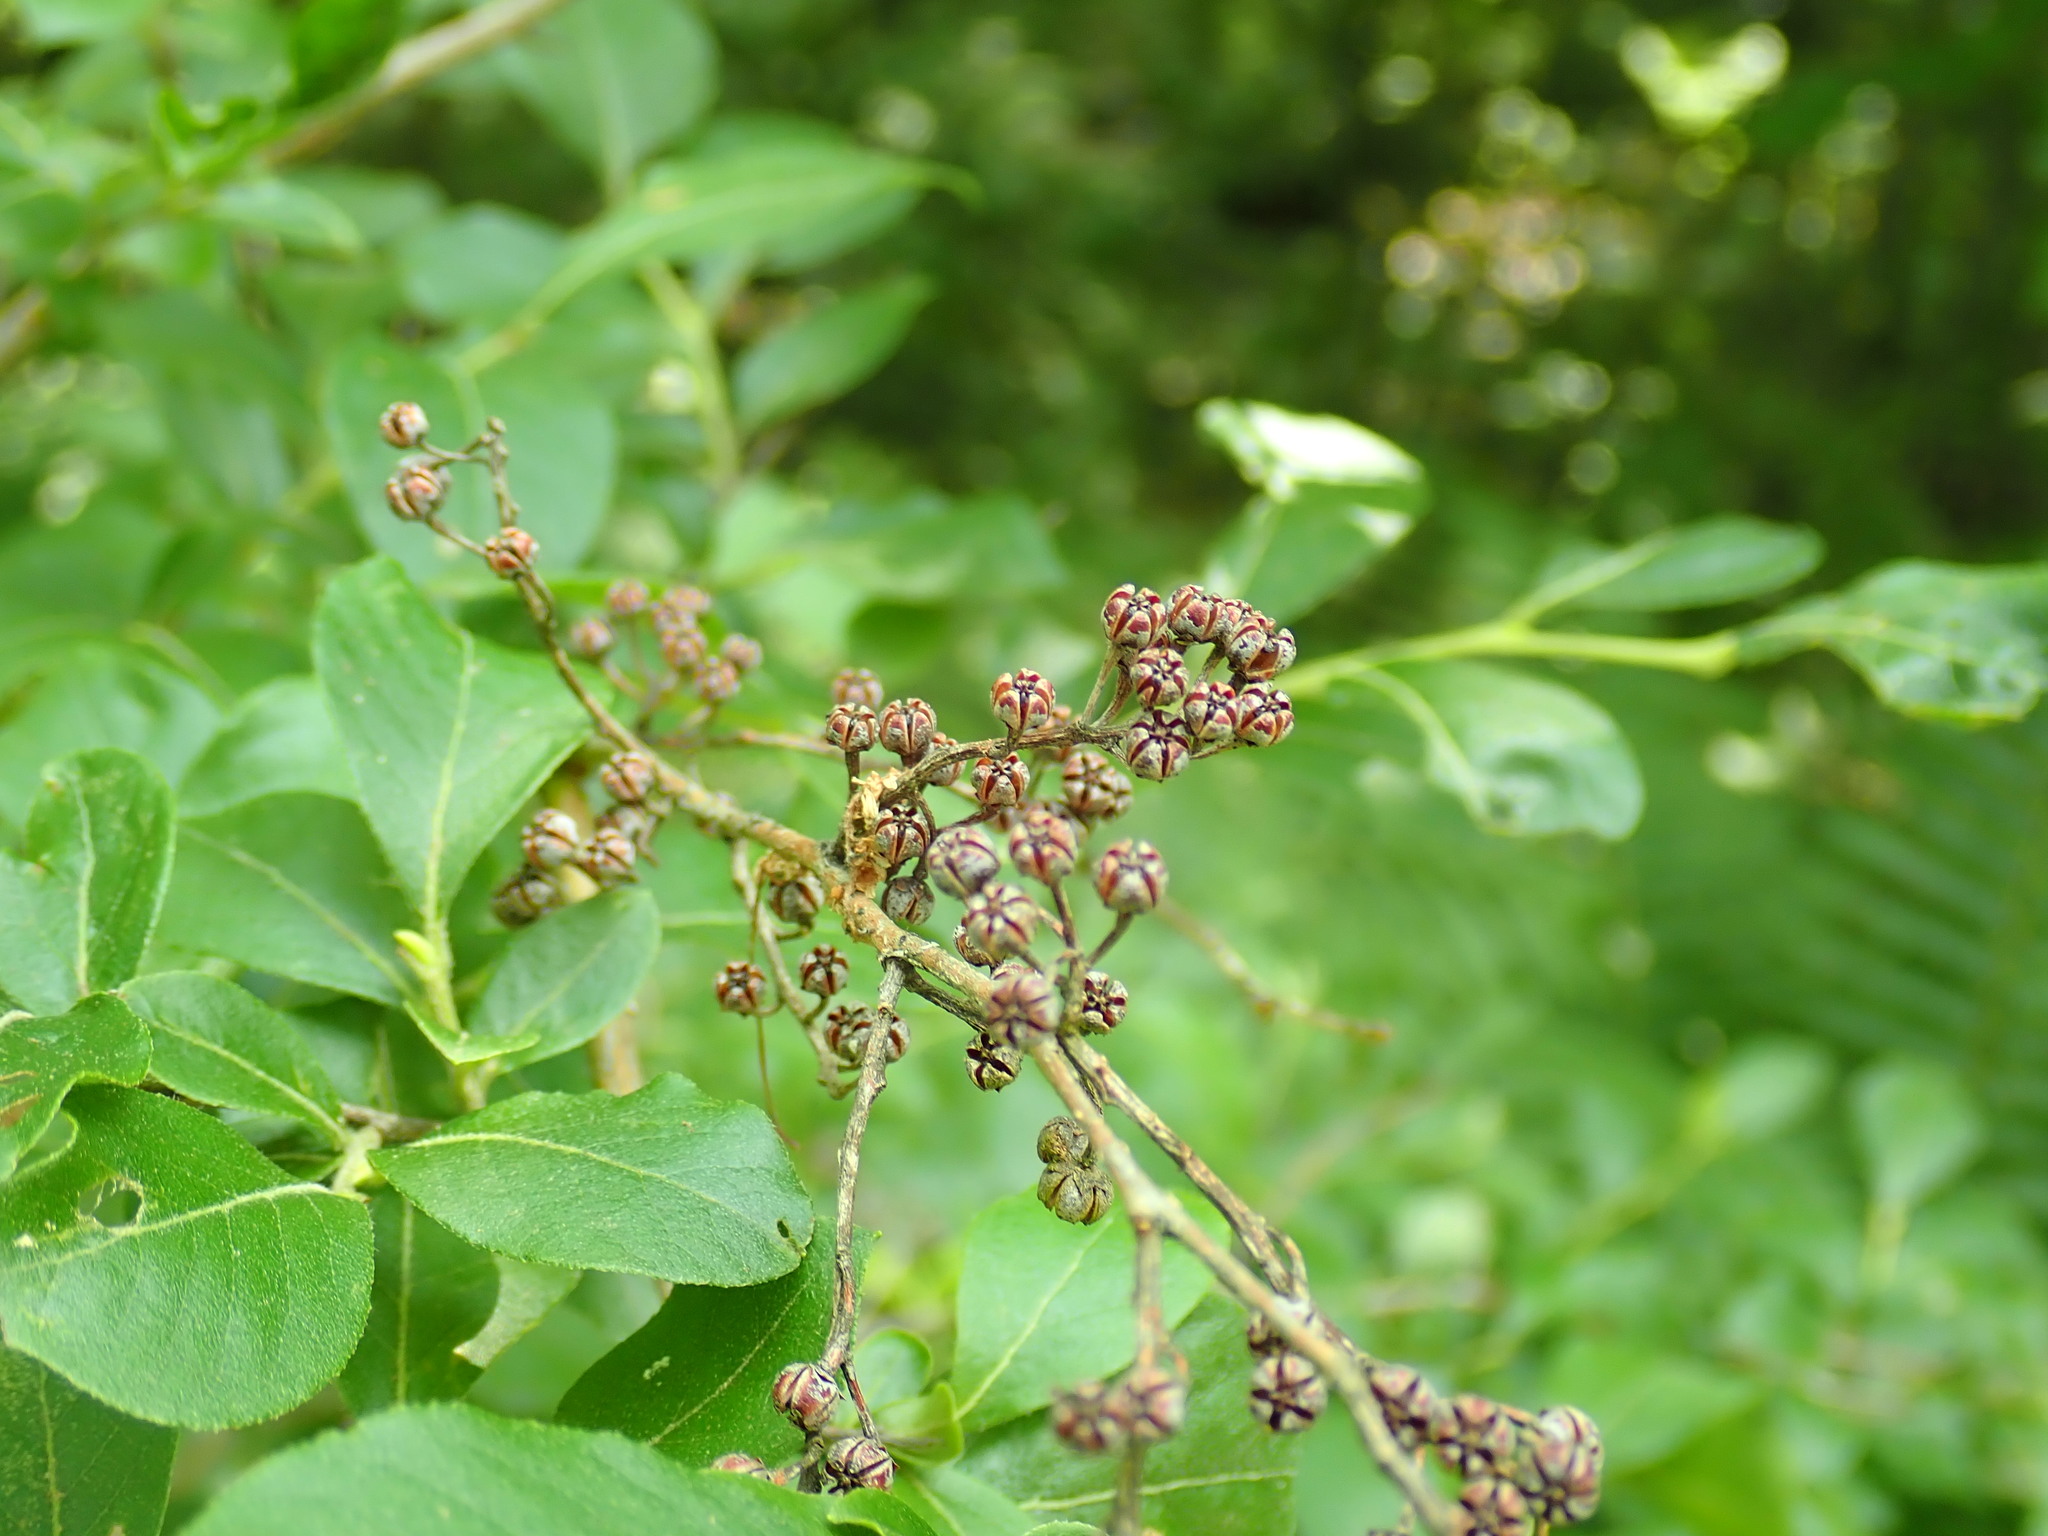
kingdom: Plantae
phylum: Tracheophyta
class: Magnoliopsida
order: Ericales
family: Ericaceae
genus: Lyonia
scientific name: Lyonia ligustrina
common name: Maleberry
